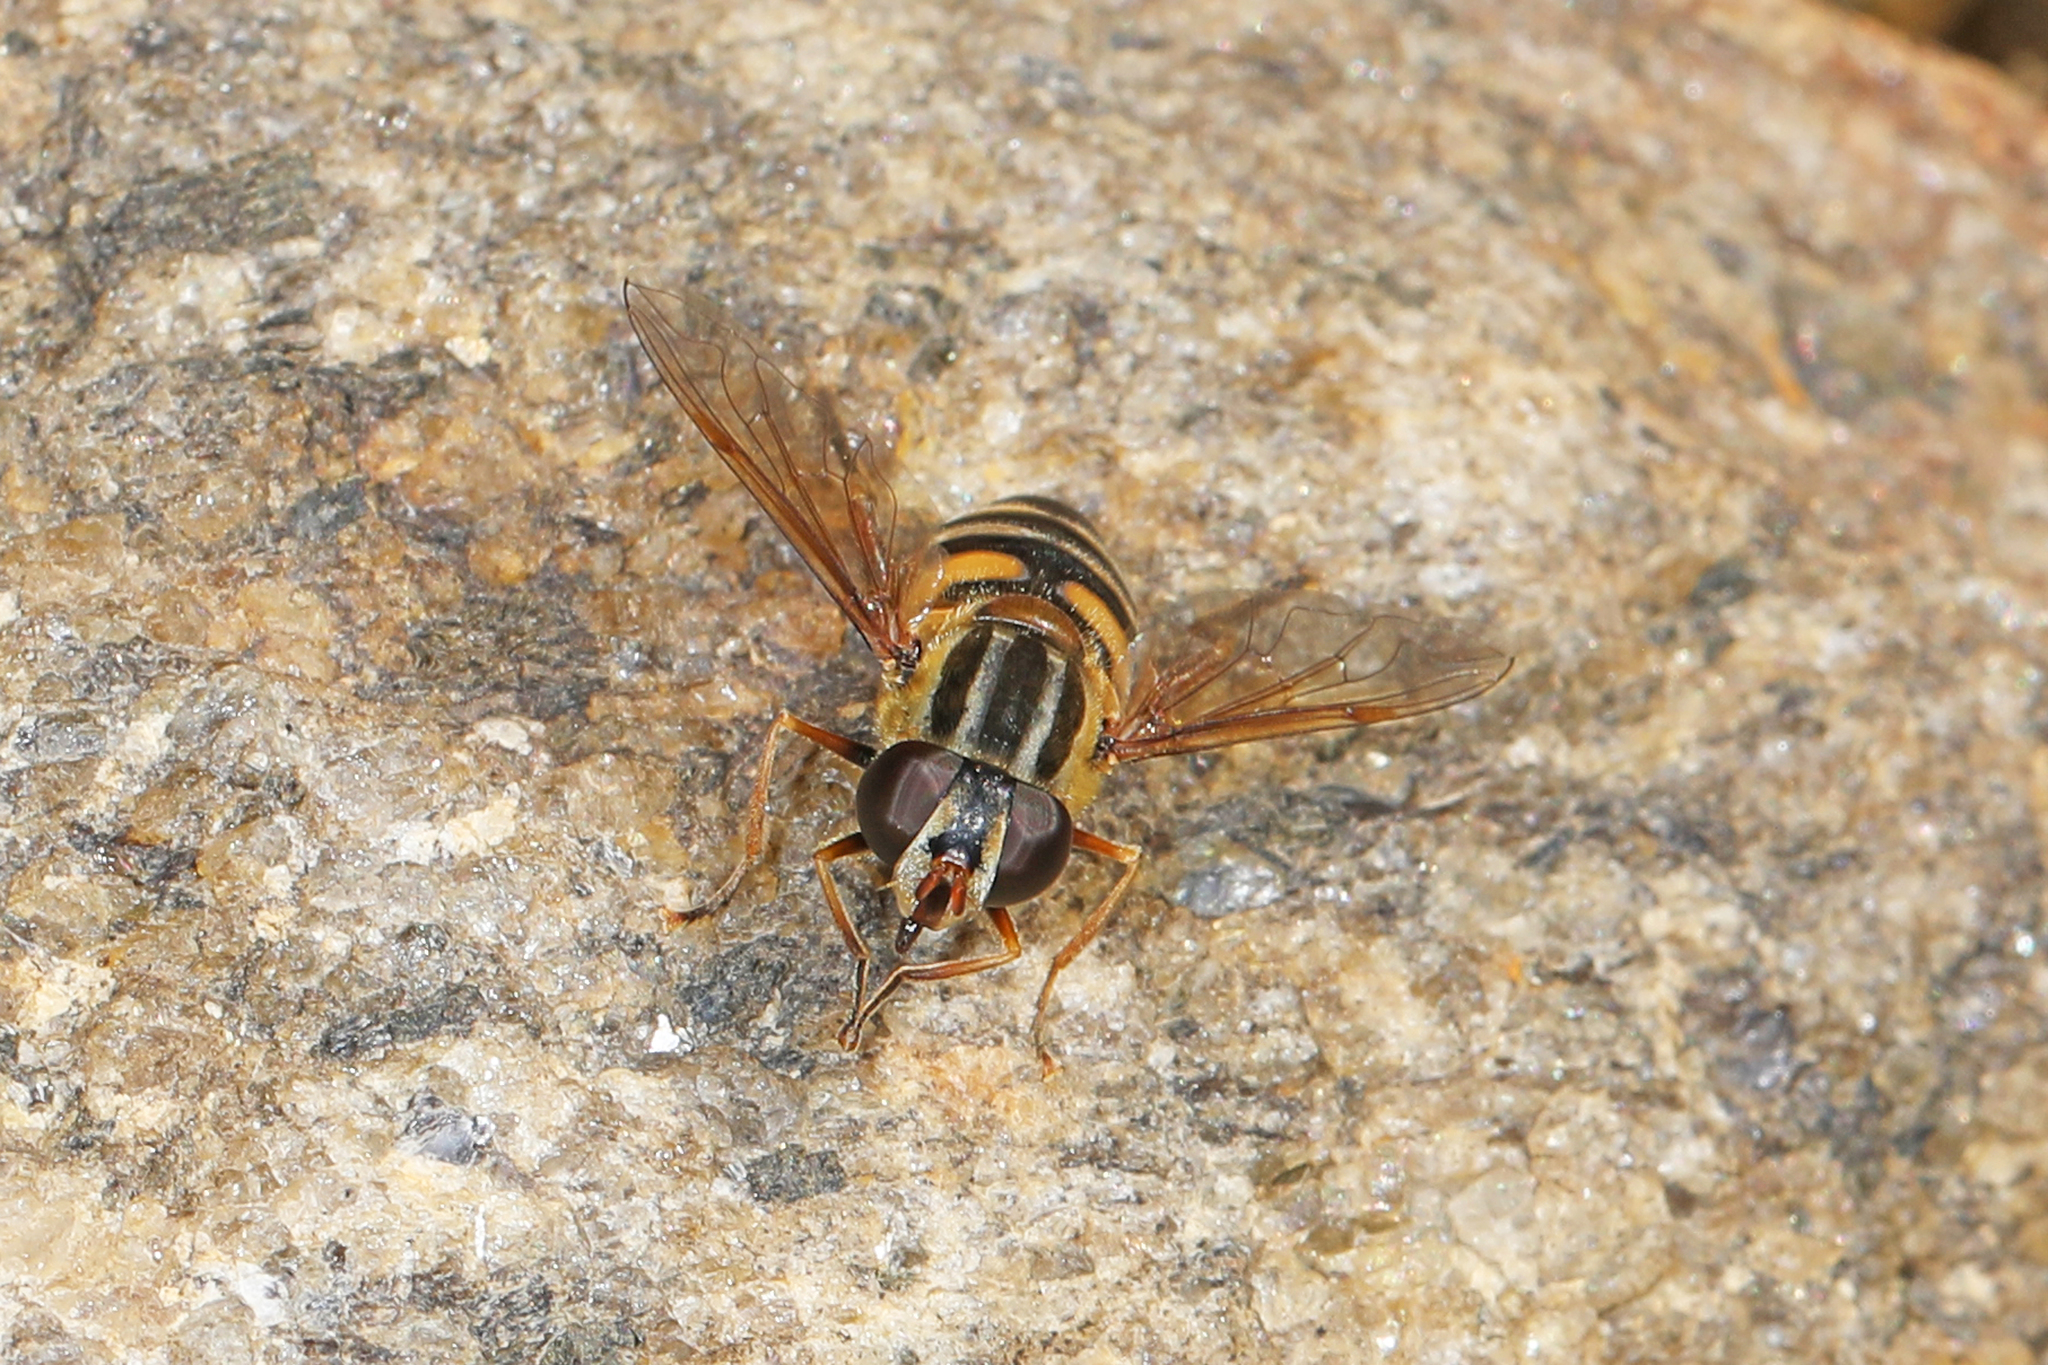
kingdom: Animalia
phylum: Arthropoda
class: Insecta
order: Diptera
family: Syrphidae
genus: Helophilus
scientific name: Helophilus fasciatus
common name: Narrow-headed marsh fly
